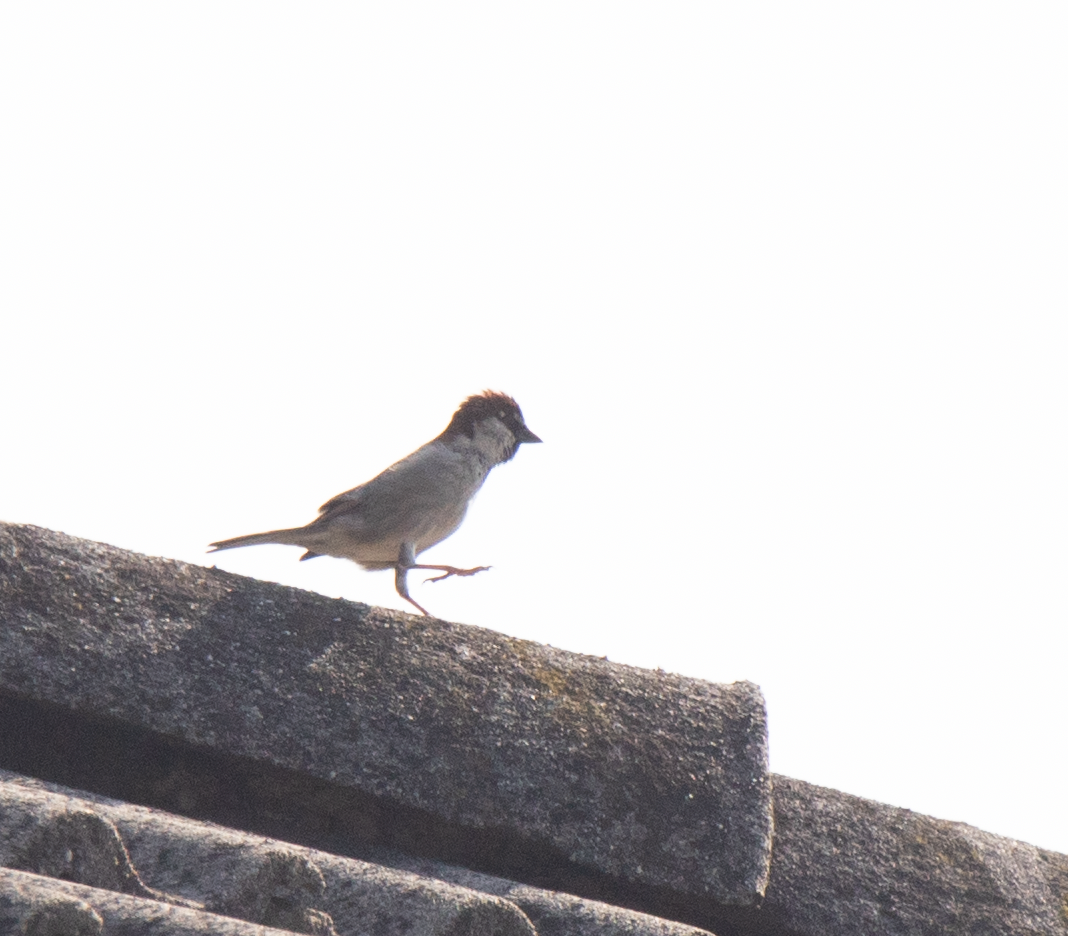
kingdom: Animalia
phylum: Chordata
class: Aves
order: Passeriformes
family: Passeridae
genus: Passer
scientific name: Passer italiae
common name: Italian sparrow
